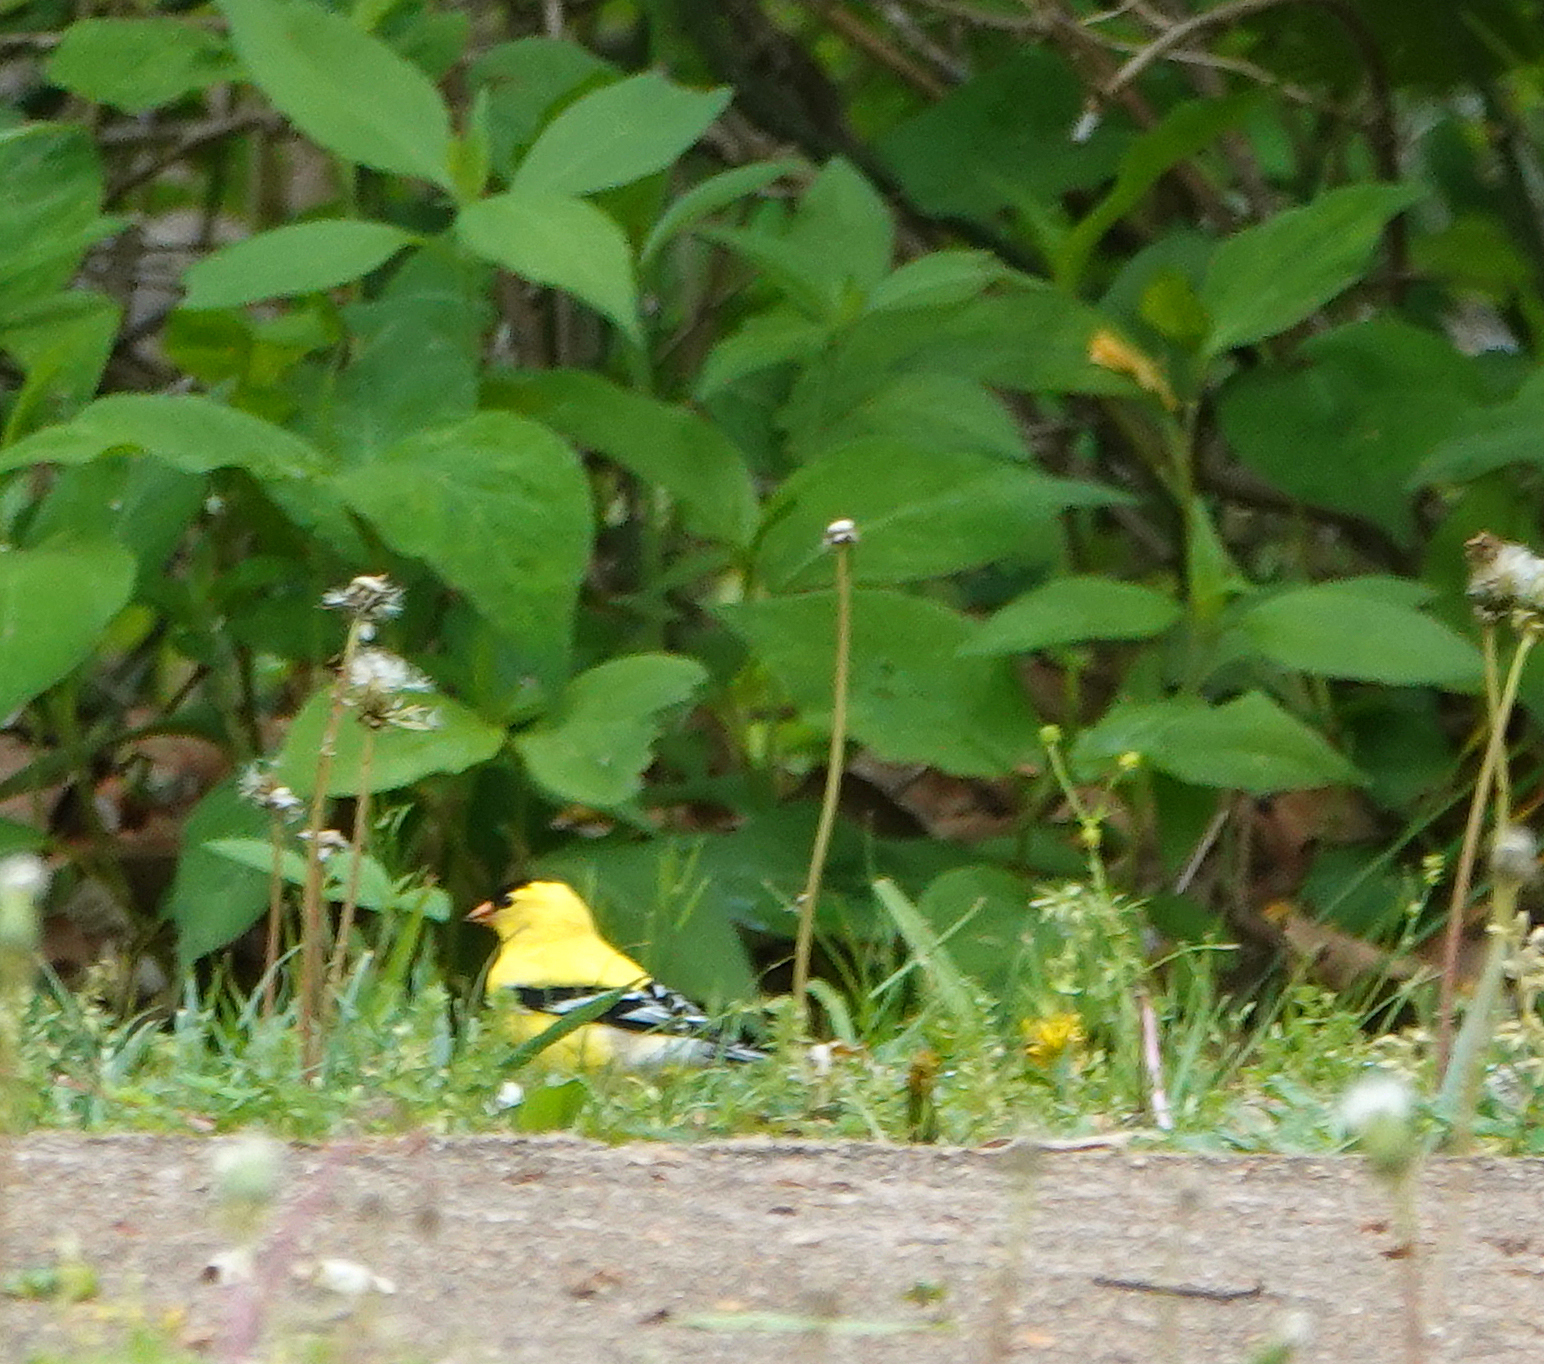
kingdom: Animalia
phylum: Chordata
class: Aves
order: Passeriformes
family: Fringillidae
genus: Spinus
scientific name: Spinus tristis
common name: American goldfinch
